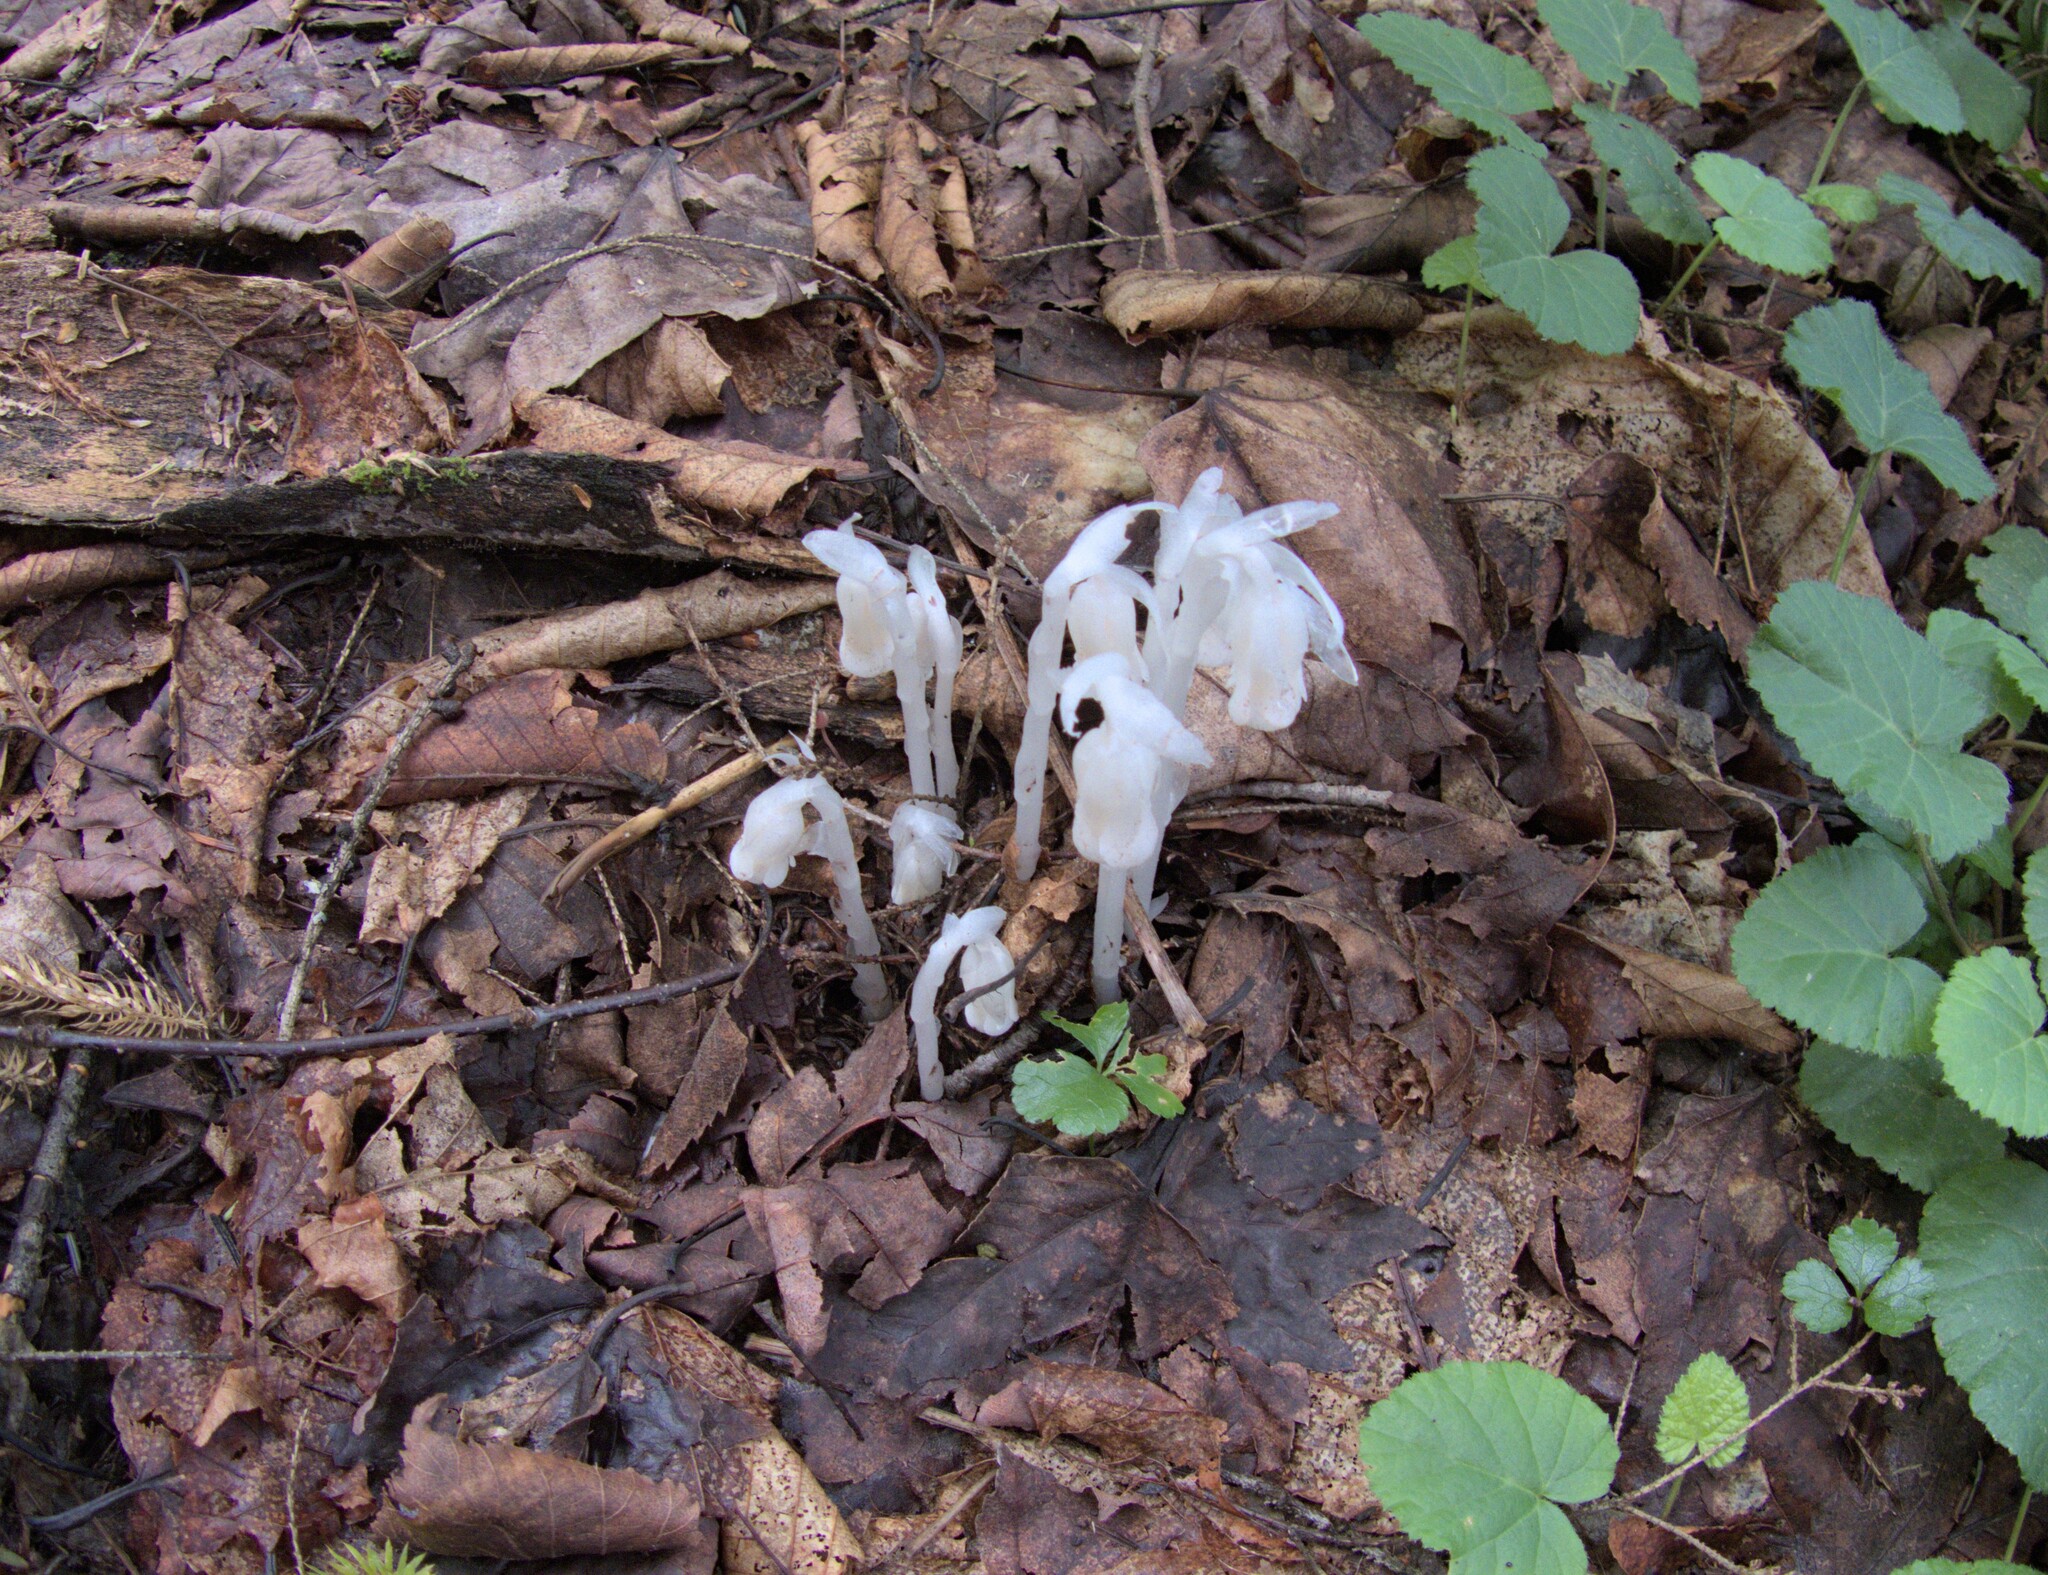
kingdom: Plantae
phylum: Tracheophyta
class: Magnoliopsida
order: Ericales
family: Ericaceae
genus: Monotropa
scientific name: Monotropa uniflora
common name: Convulsion root
